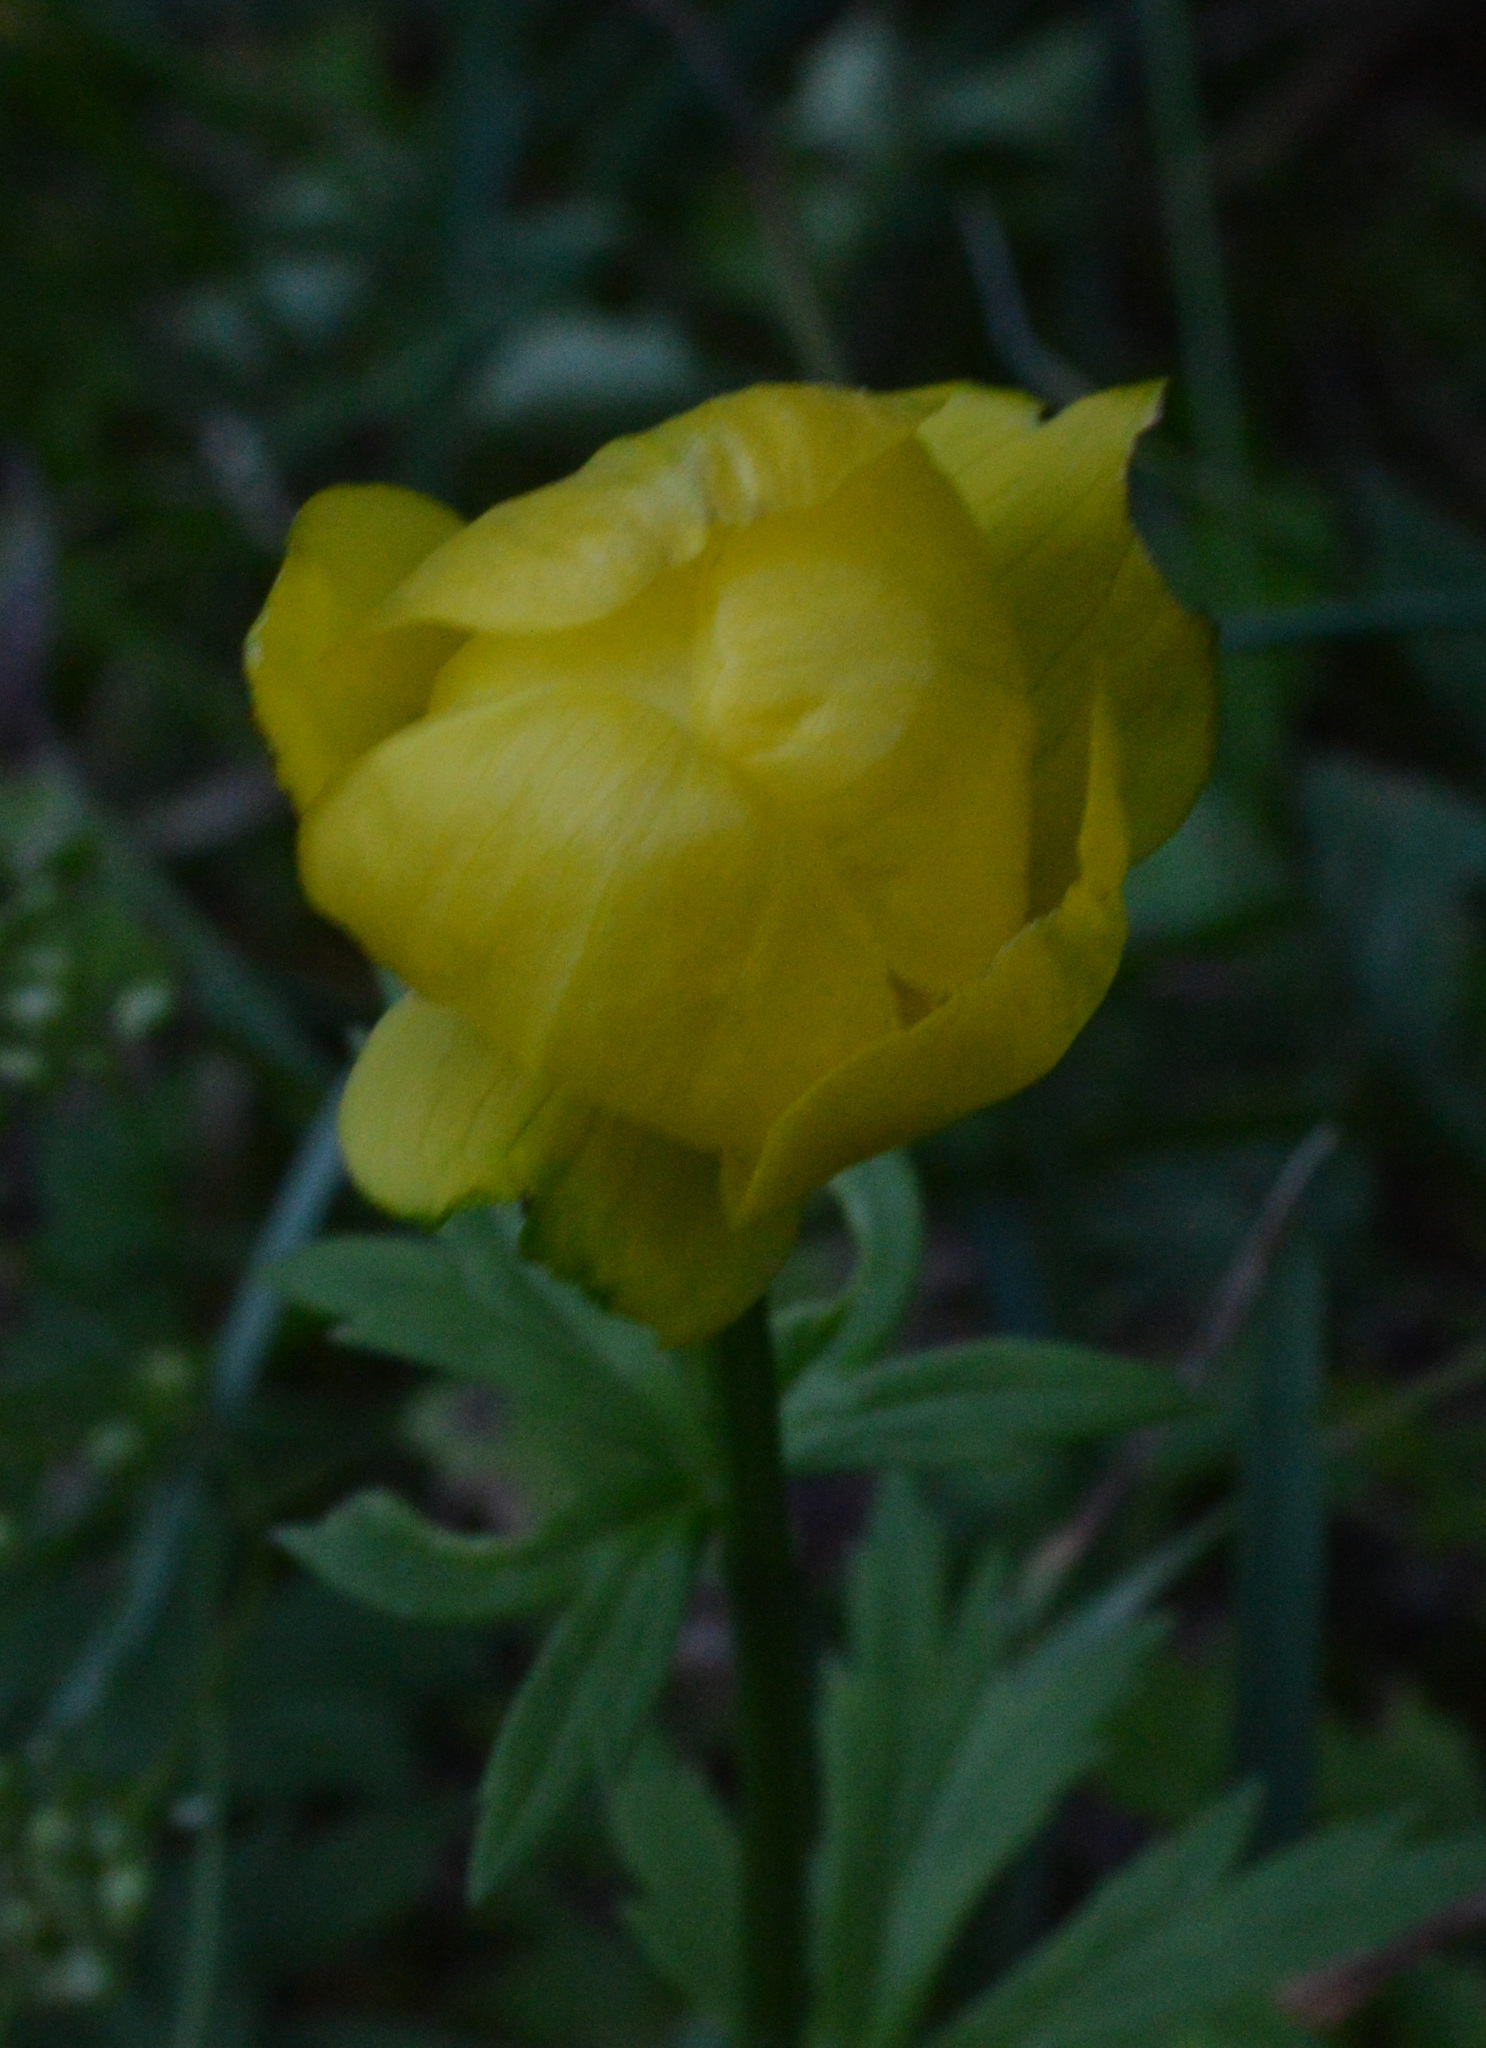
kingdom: Plantae
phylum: Tracheophyta
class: Magnoliopsida
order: Ranunculales
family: Ranunculaceae
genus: Trollius
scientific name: Trollius europaeus
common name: European globeflower
